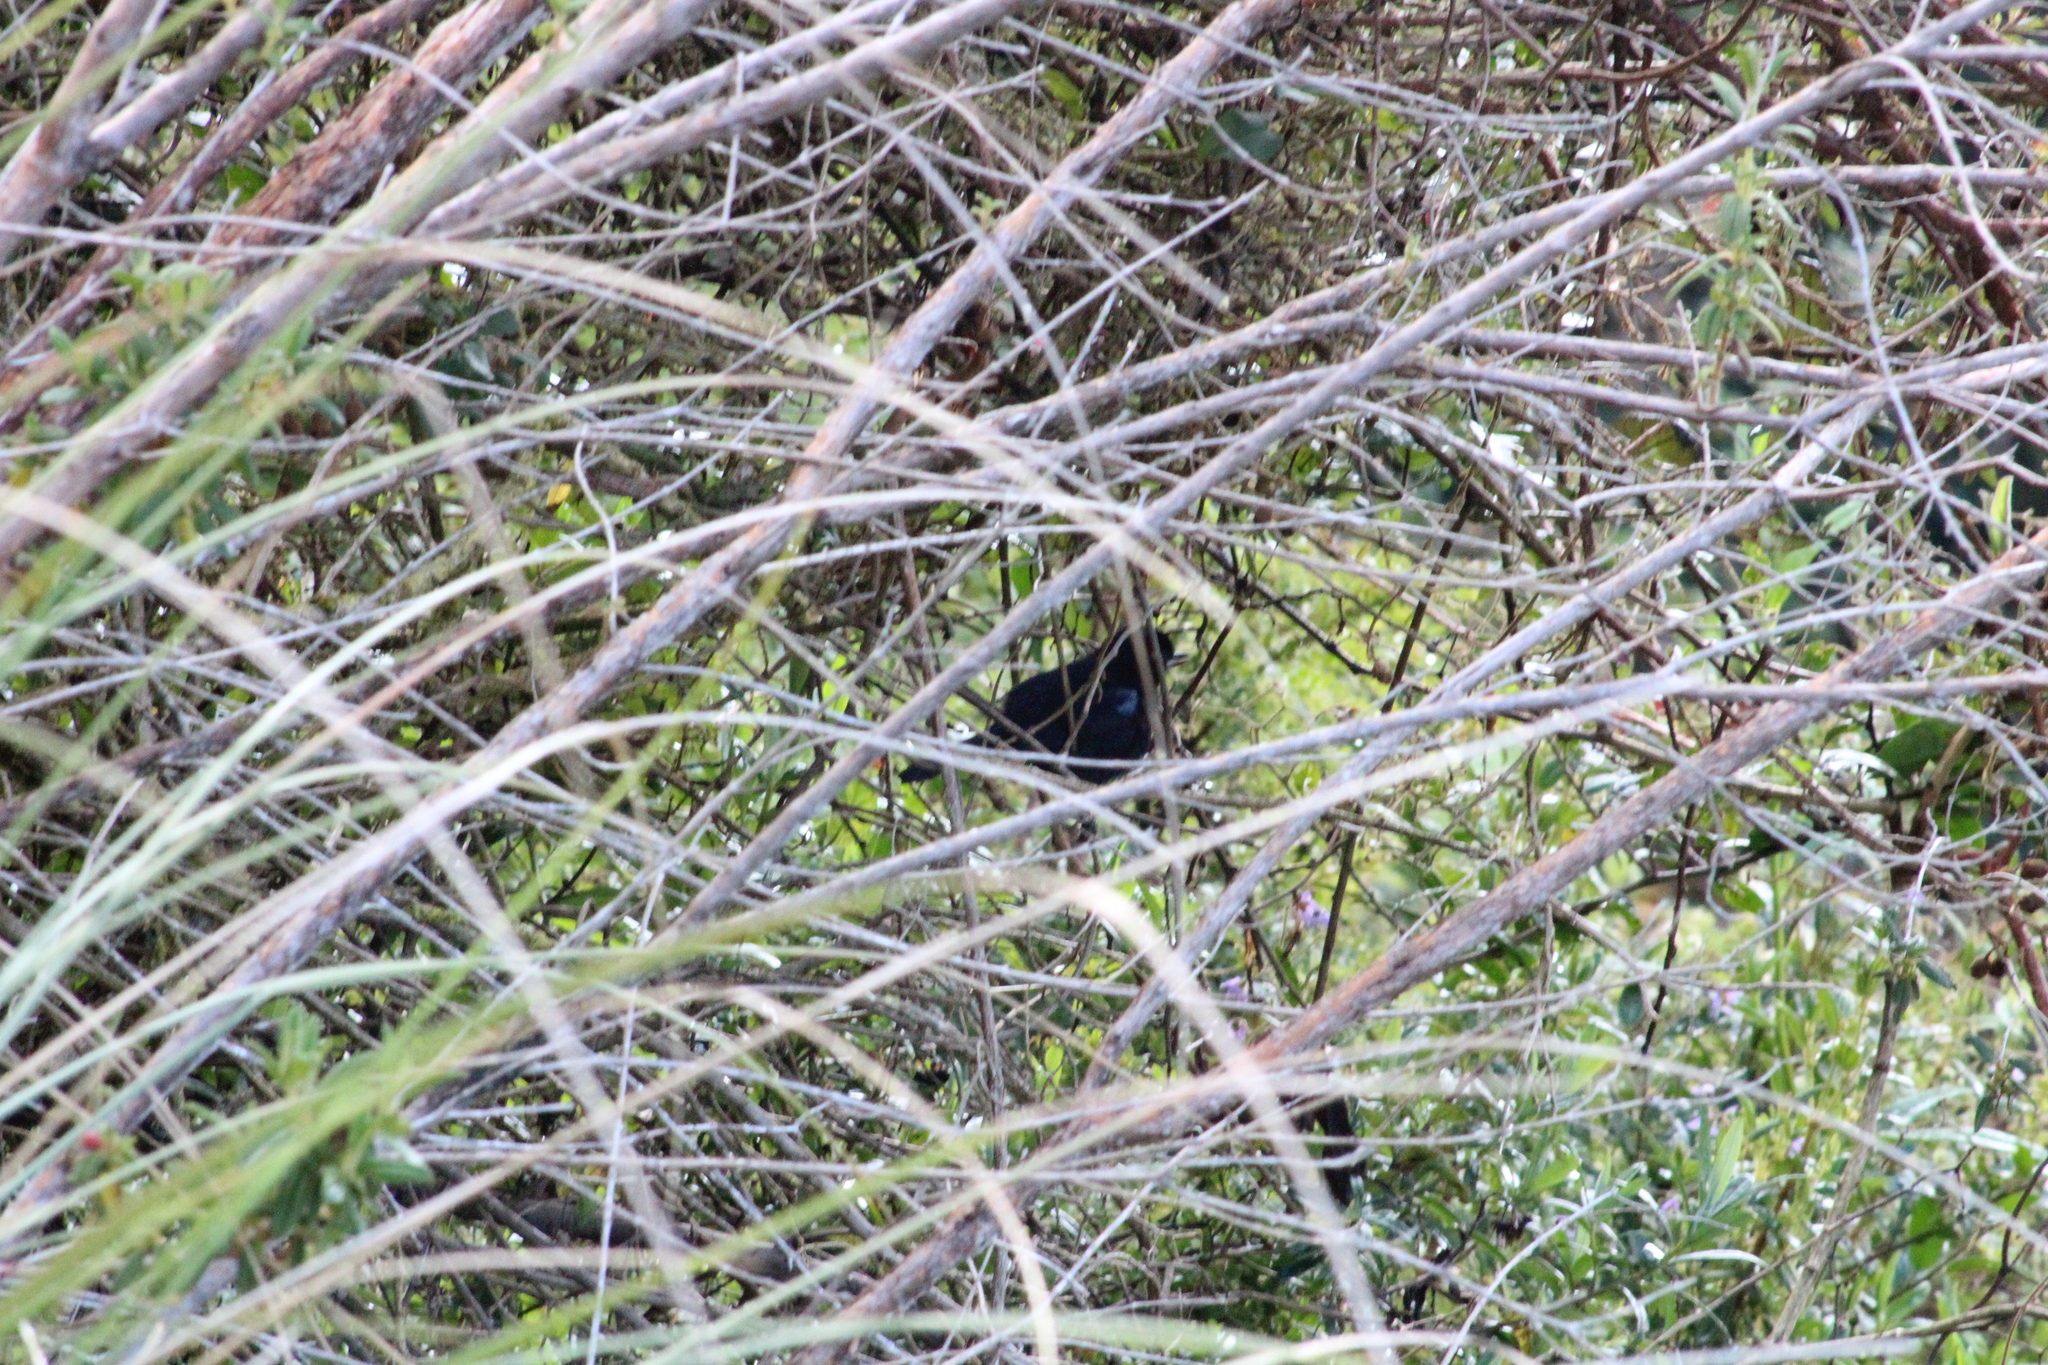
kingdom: Animalia
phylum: Chordata
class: Aves
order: Passeriformes
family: Thraupidae
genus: Diglossa
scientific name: Diglossa lafresnayii
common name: Glossy flowerpiercer
